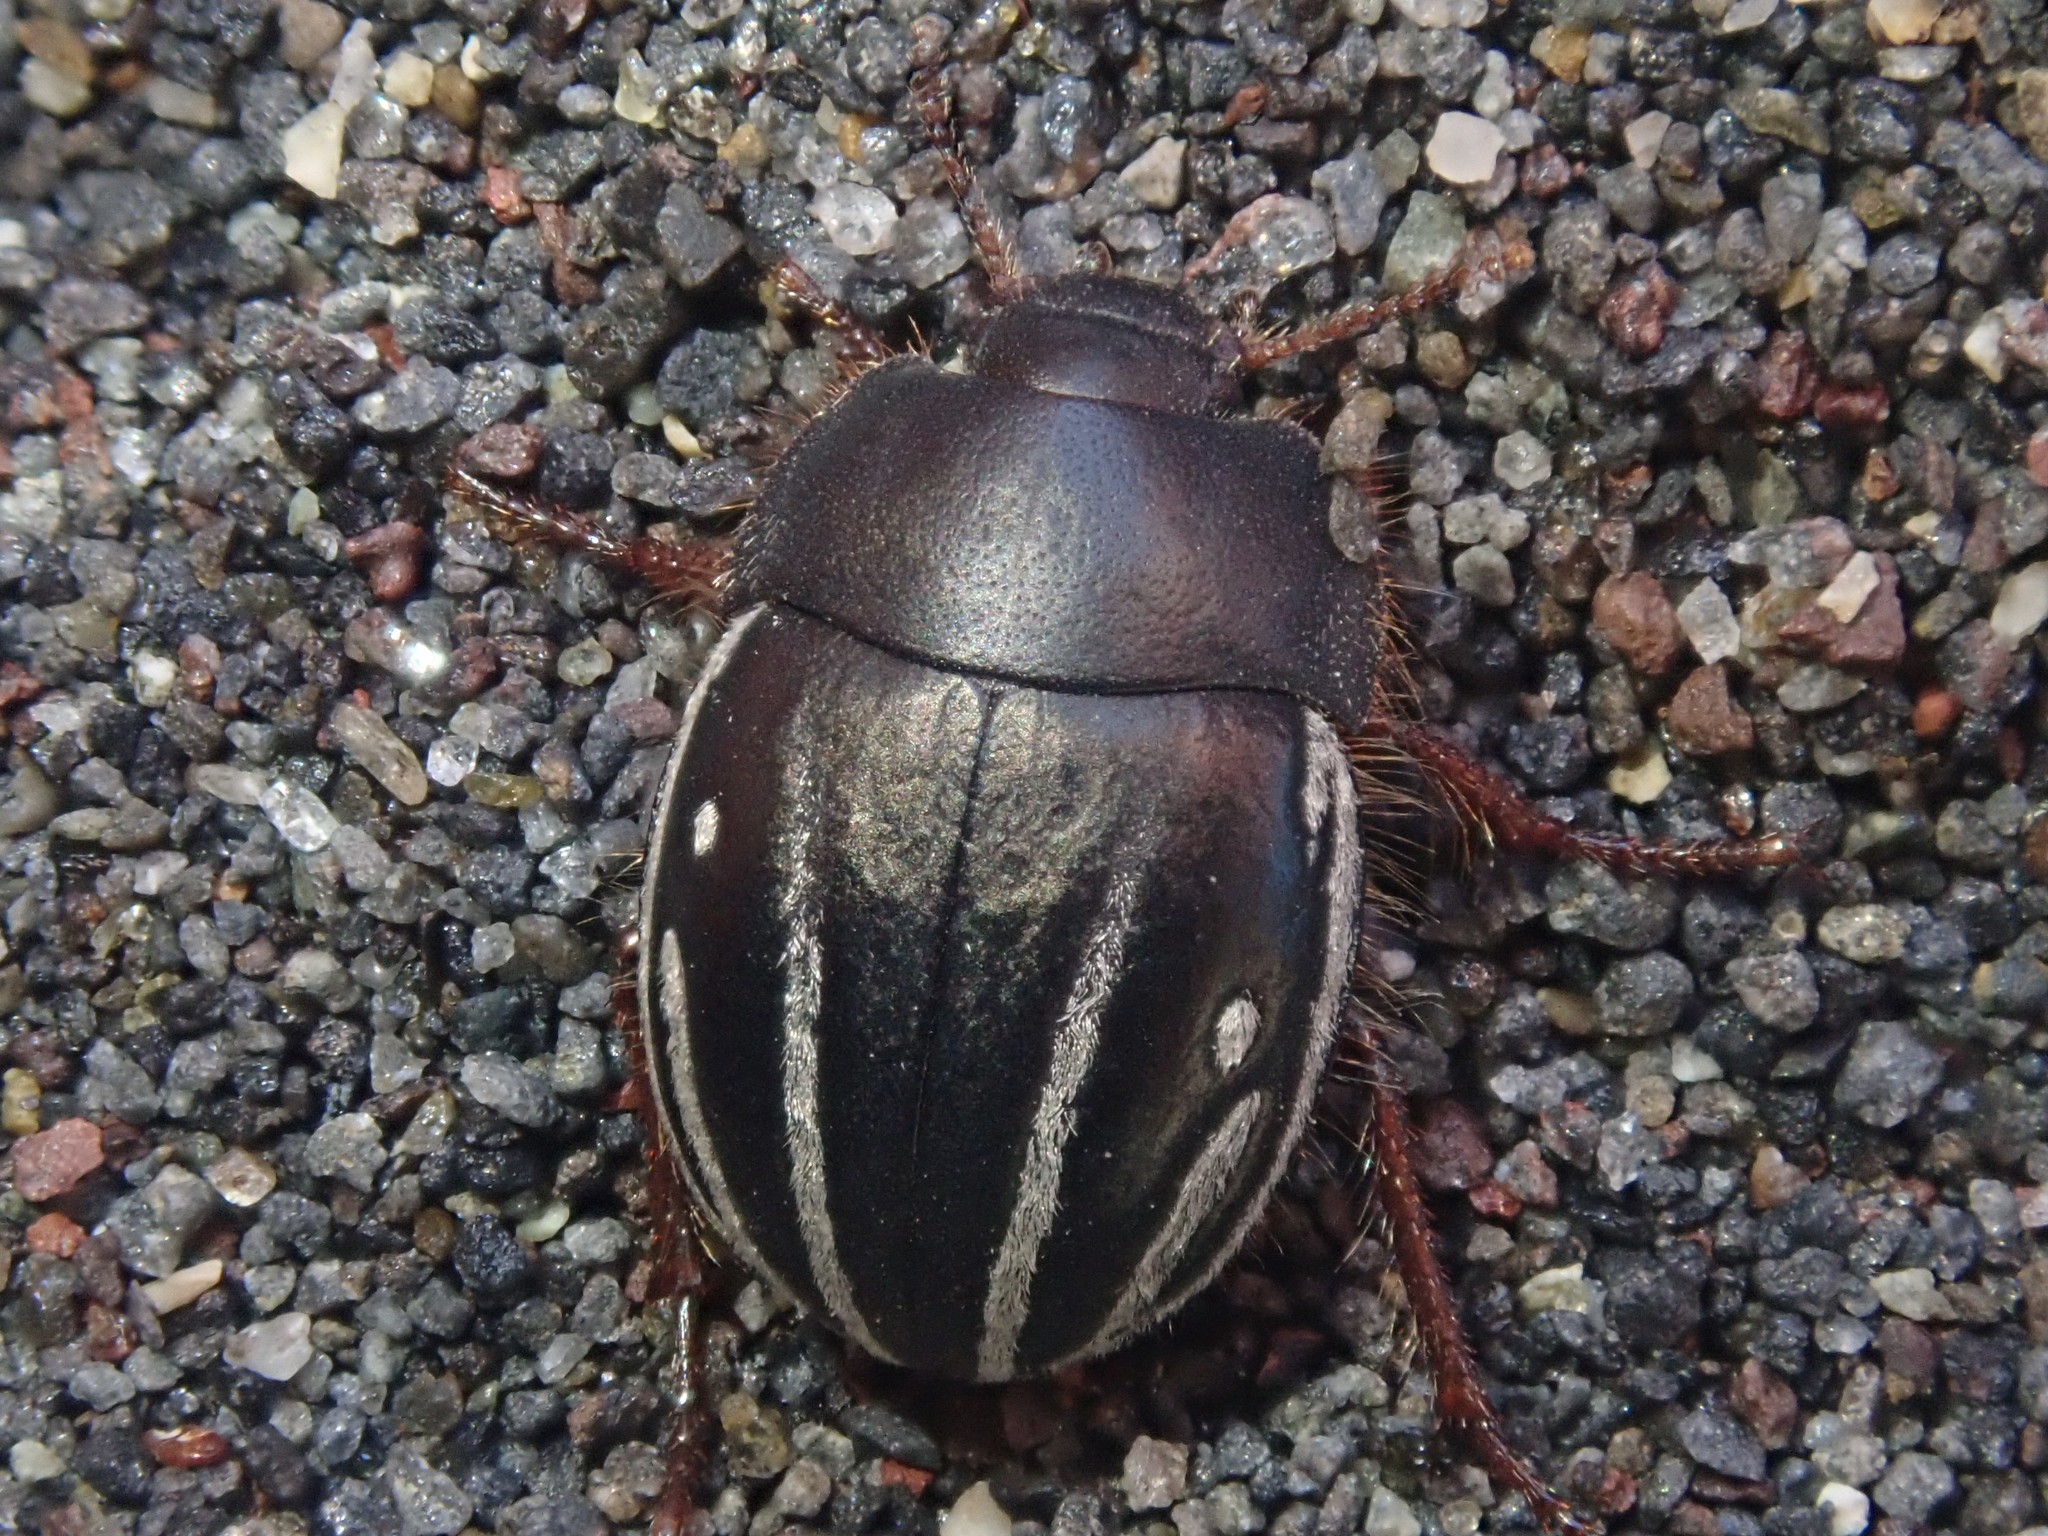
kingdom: Animalia
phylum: Arthropoda
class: Insecta
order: Coleoptera
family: Tenebrionidae
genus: Praocis
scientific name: Praocis rufipes
